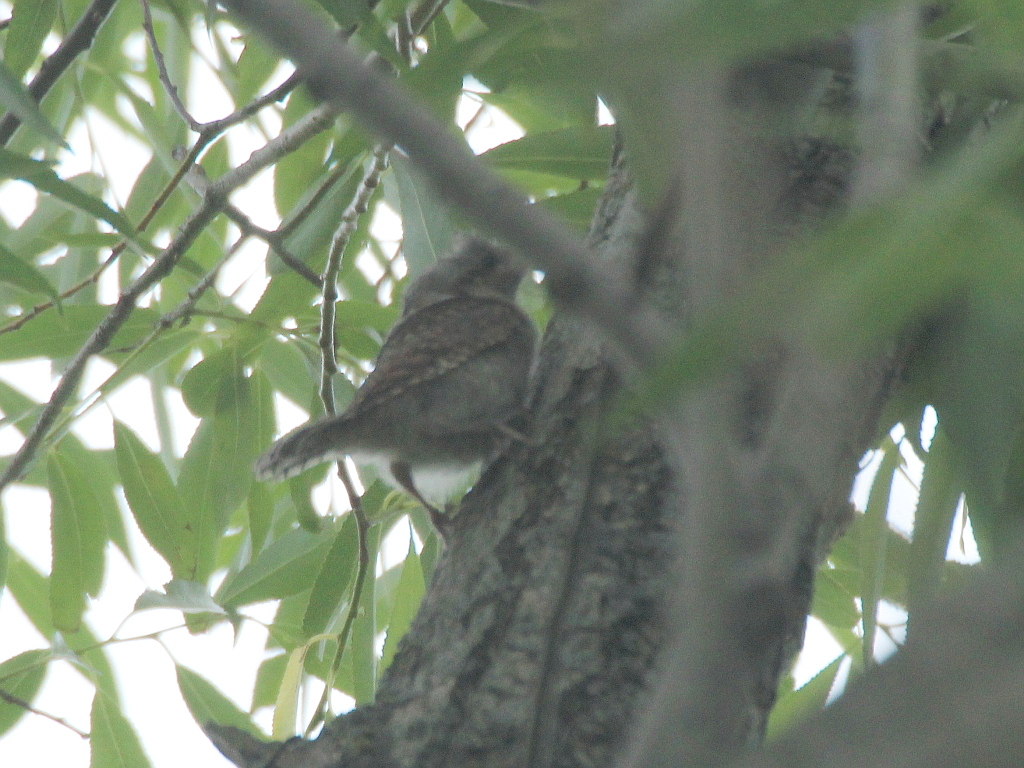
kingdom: Animalia
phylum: Chordata
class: Aves
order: Piciformes
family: Picidae
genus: Jynx
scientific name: Jynx torquilla
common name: Eurasian wryneck
